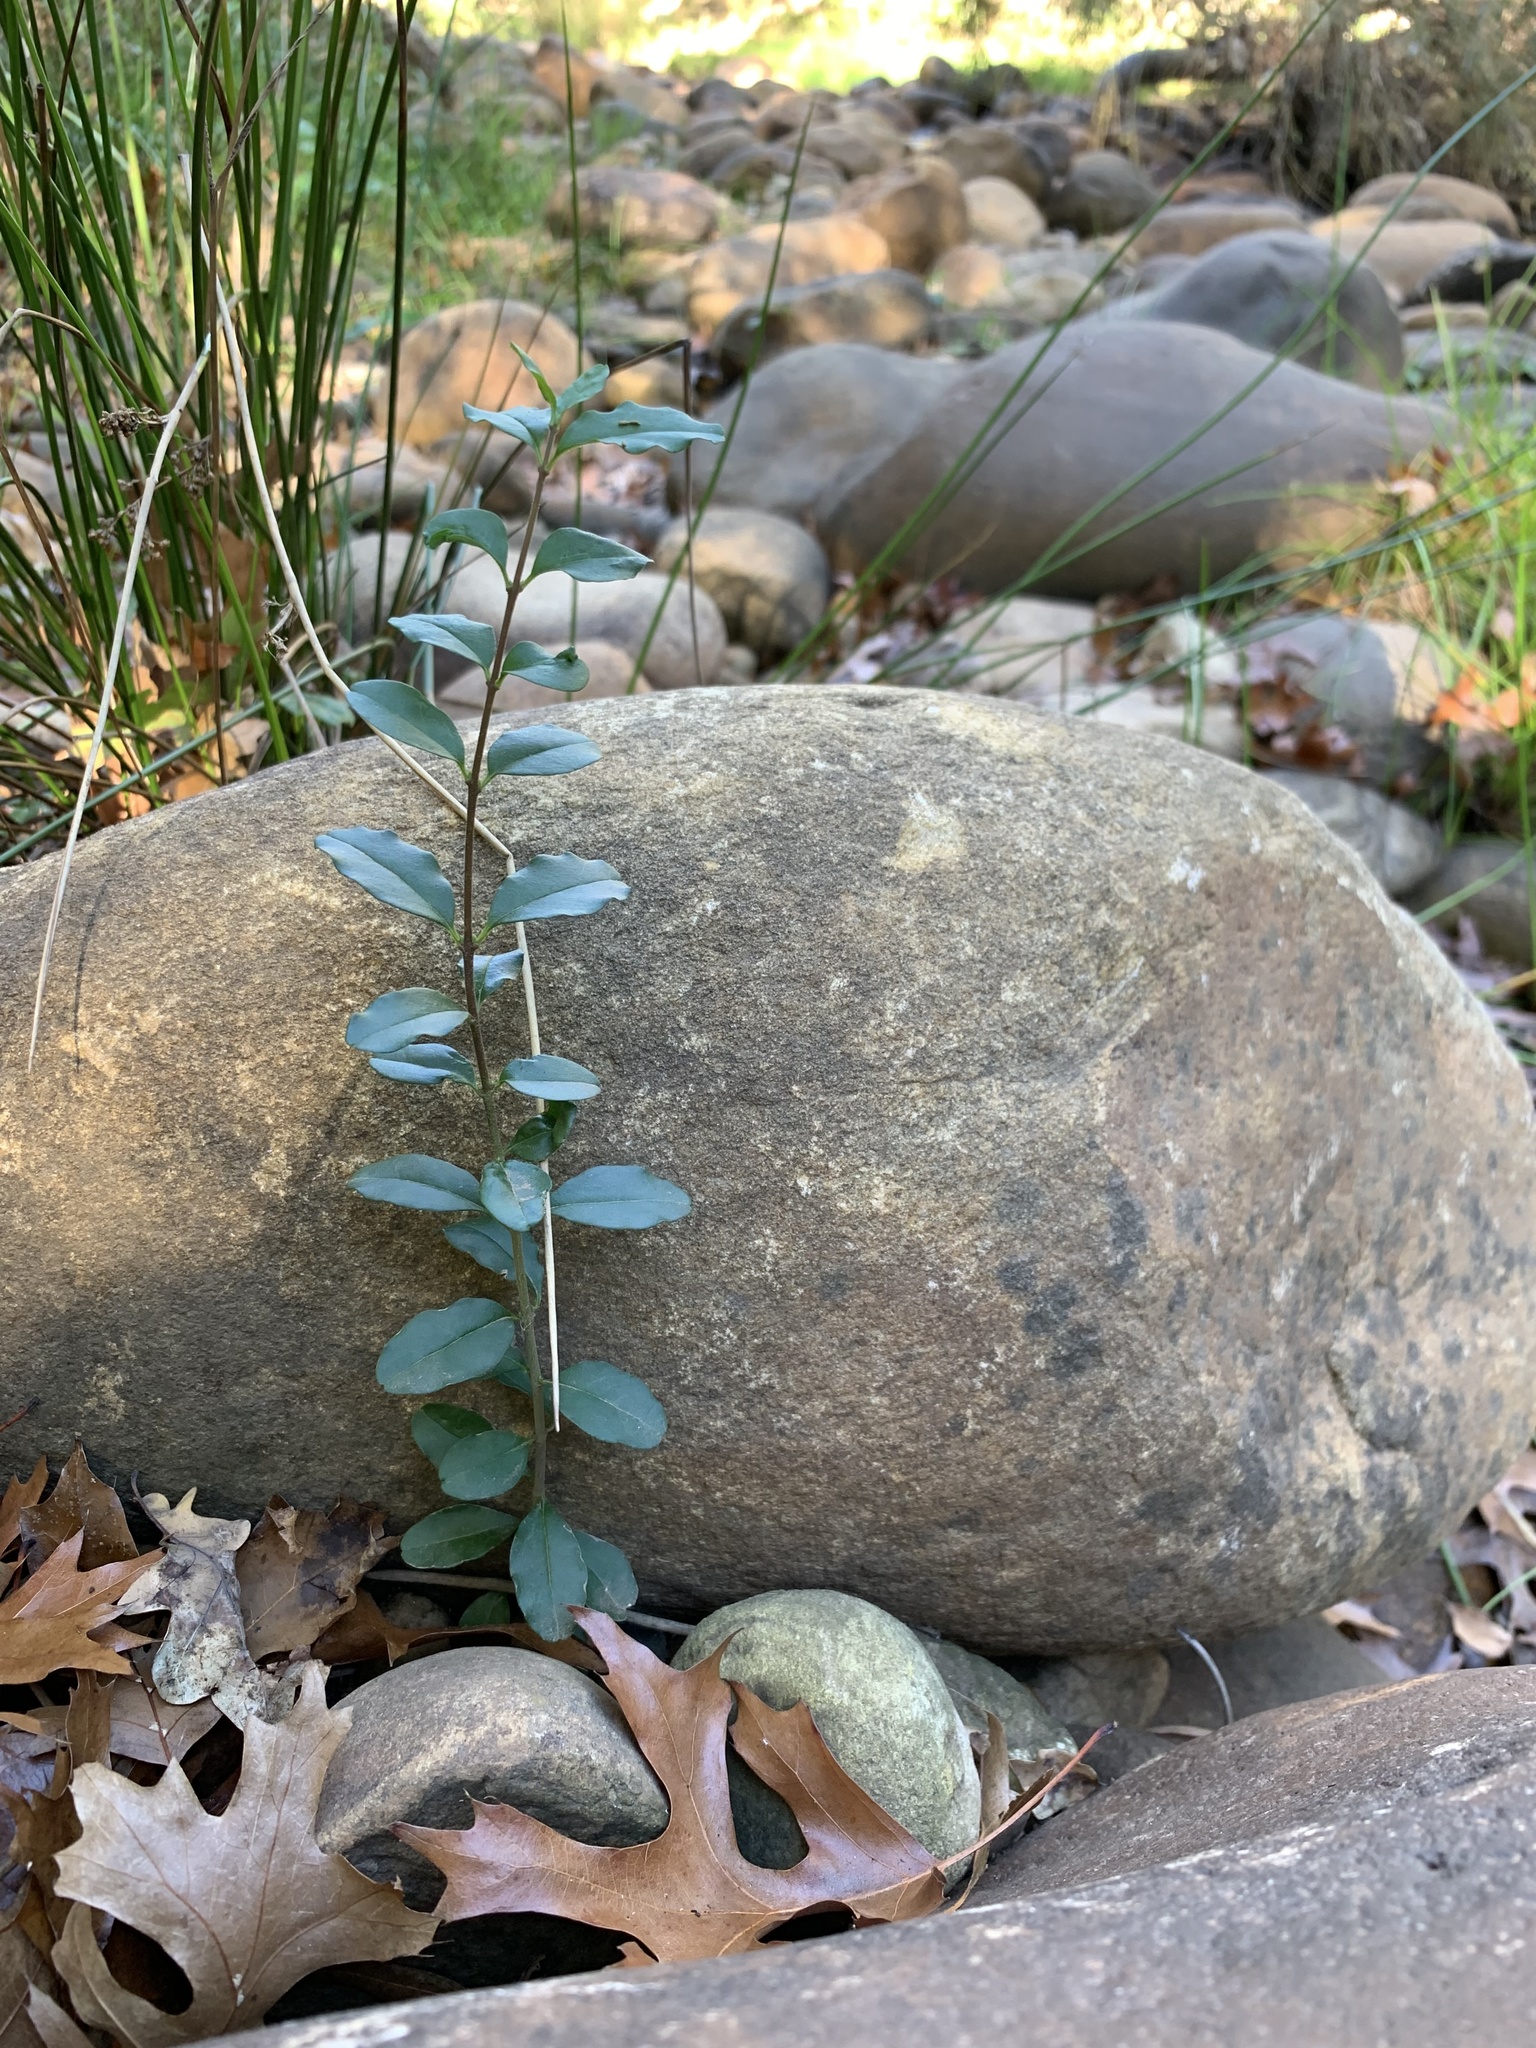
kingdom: Plantae
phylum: Tracheophyta
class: Magnoliopsida
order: Lamiales
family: Oleaceae
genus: Ligustrum
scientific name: Ligustrum sinense
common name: Chinese privet
